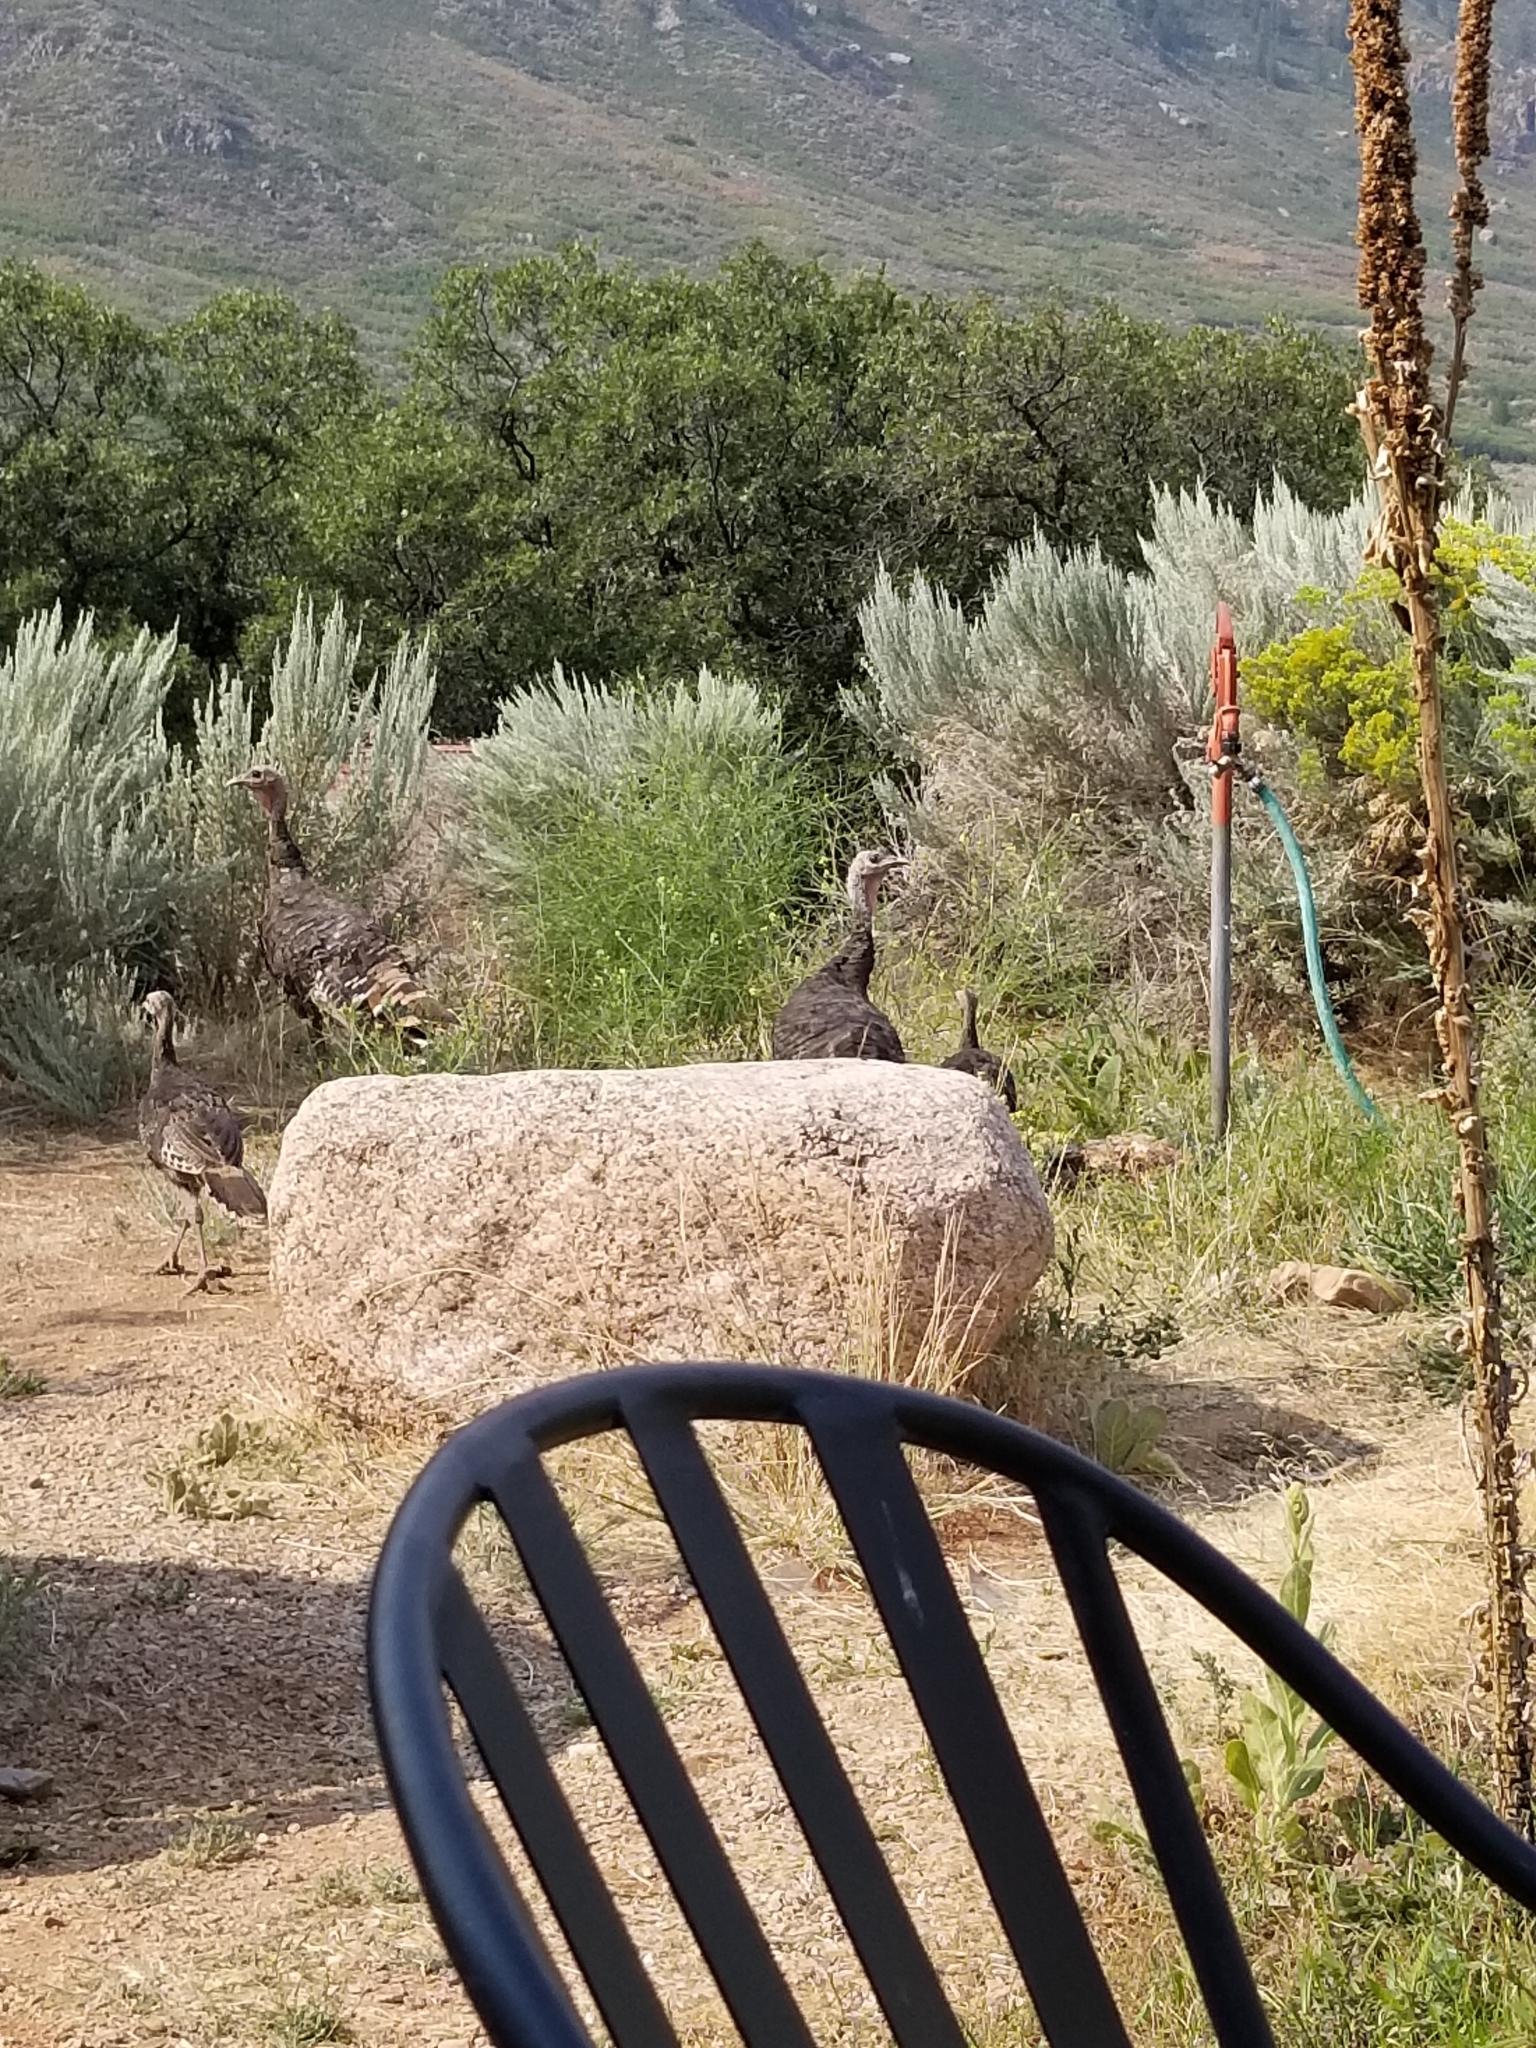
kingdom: Animalia
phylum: Chordata
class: Aves
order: Galliformes
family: Phasianidae
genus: Meleagris
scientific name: Meleagris gallopavo
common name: Wild turkey
